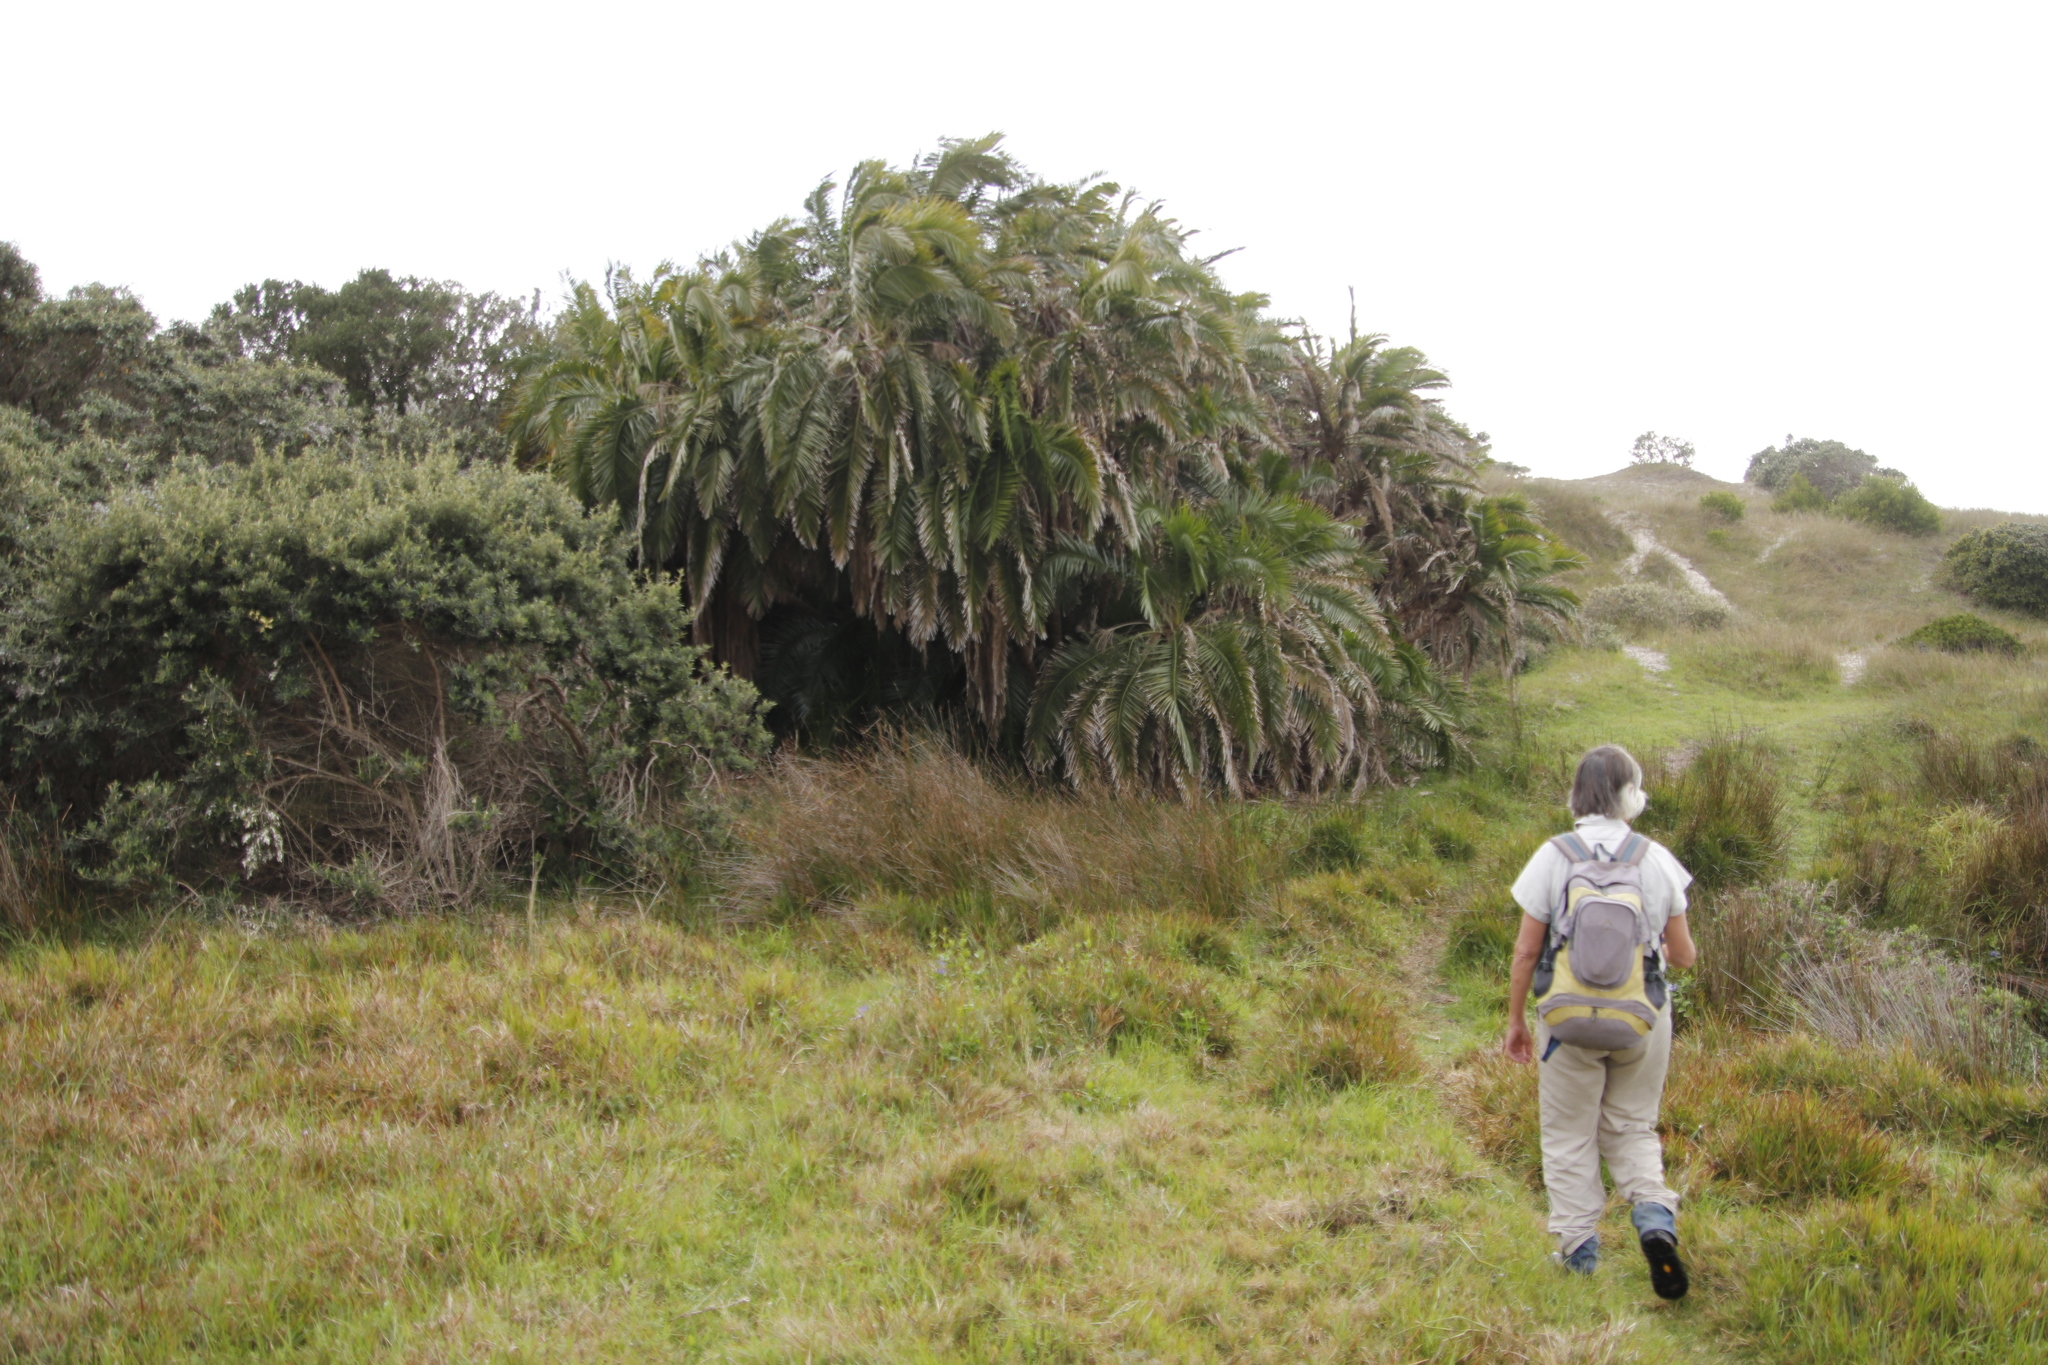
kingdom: Plantae
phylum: Tracheophyta
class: Liliopsida
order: Arecales
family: Arecaceae
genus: Phoenix
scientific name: Phoenix reclinata
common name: Senegal date palm
